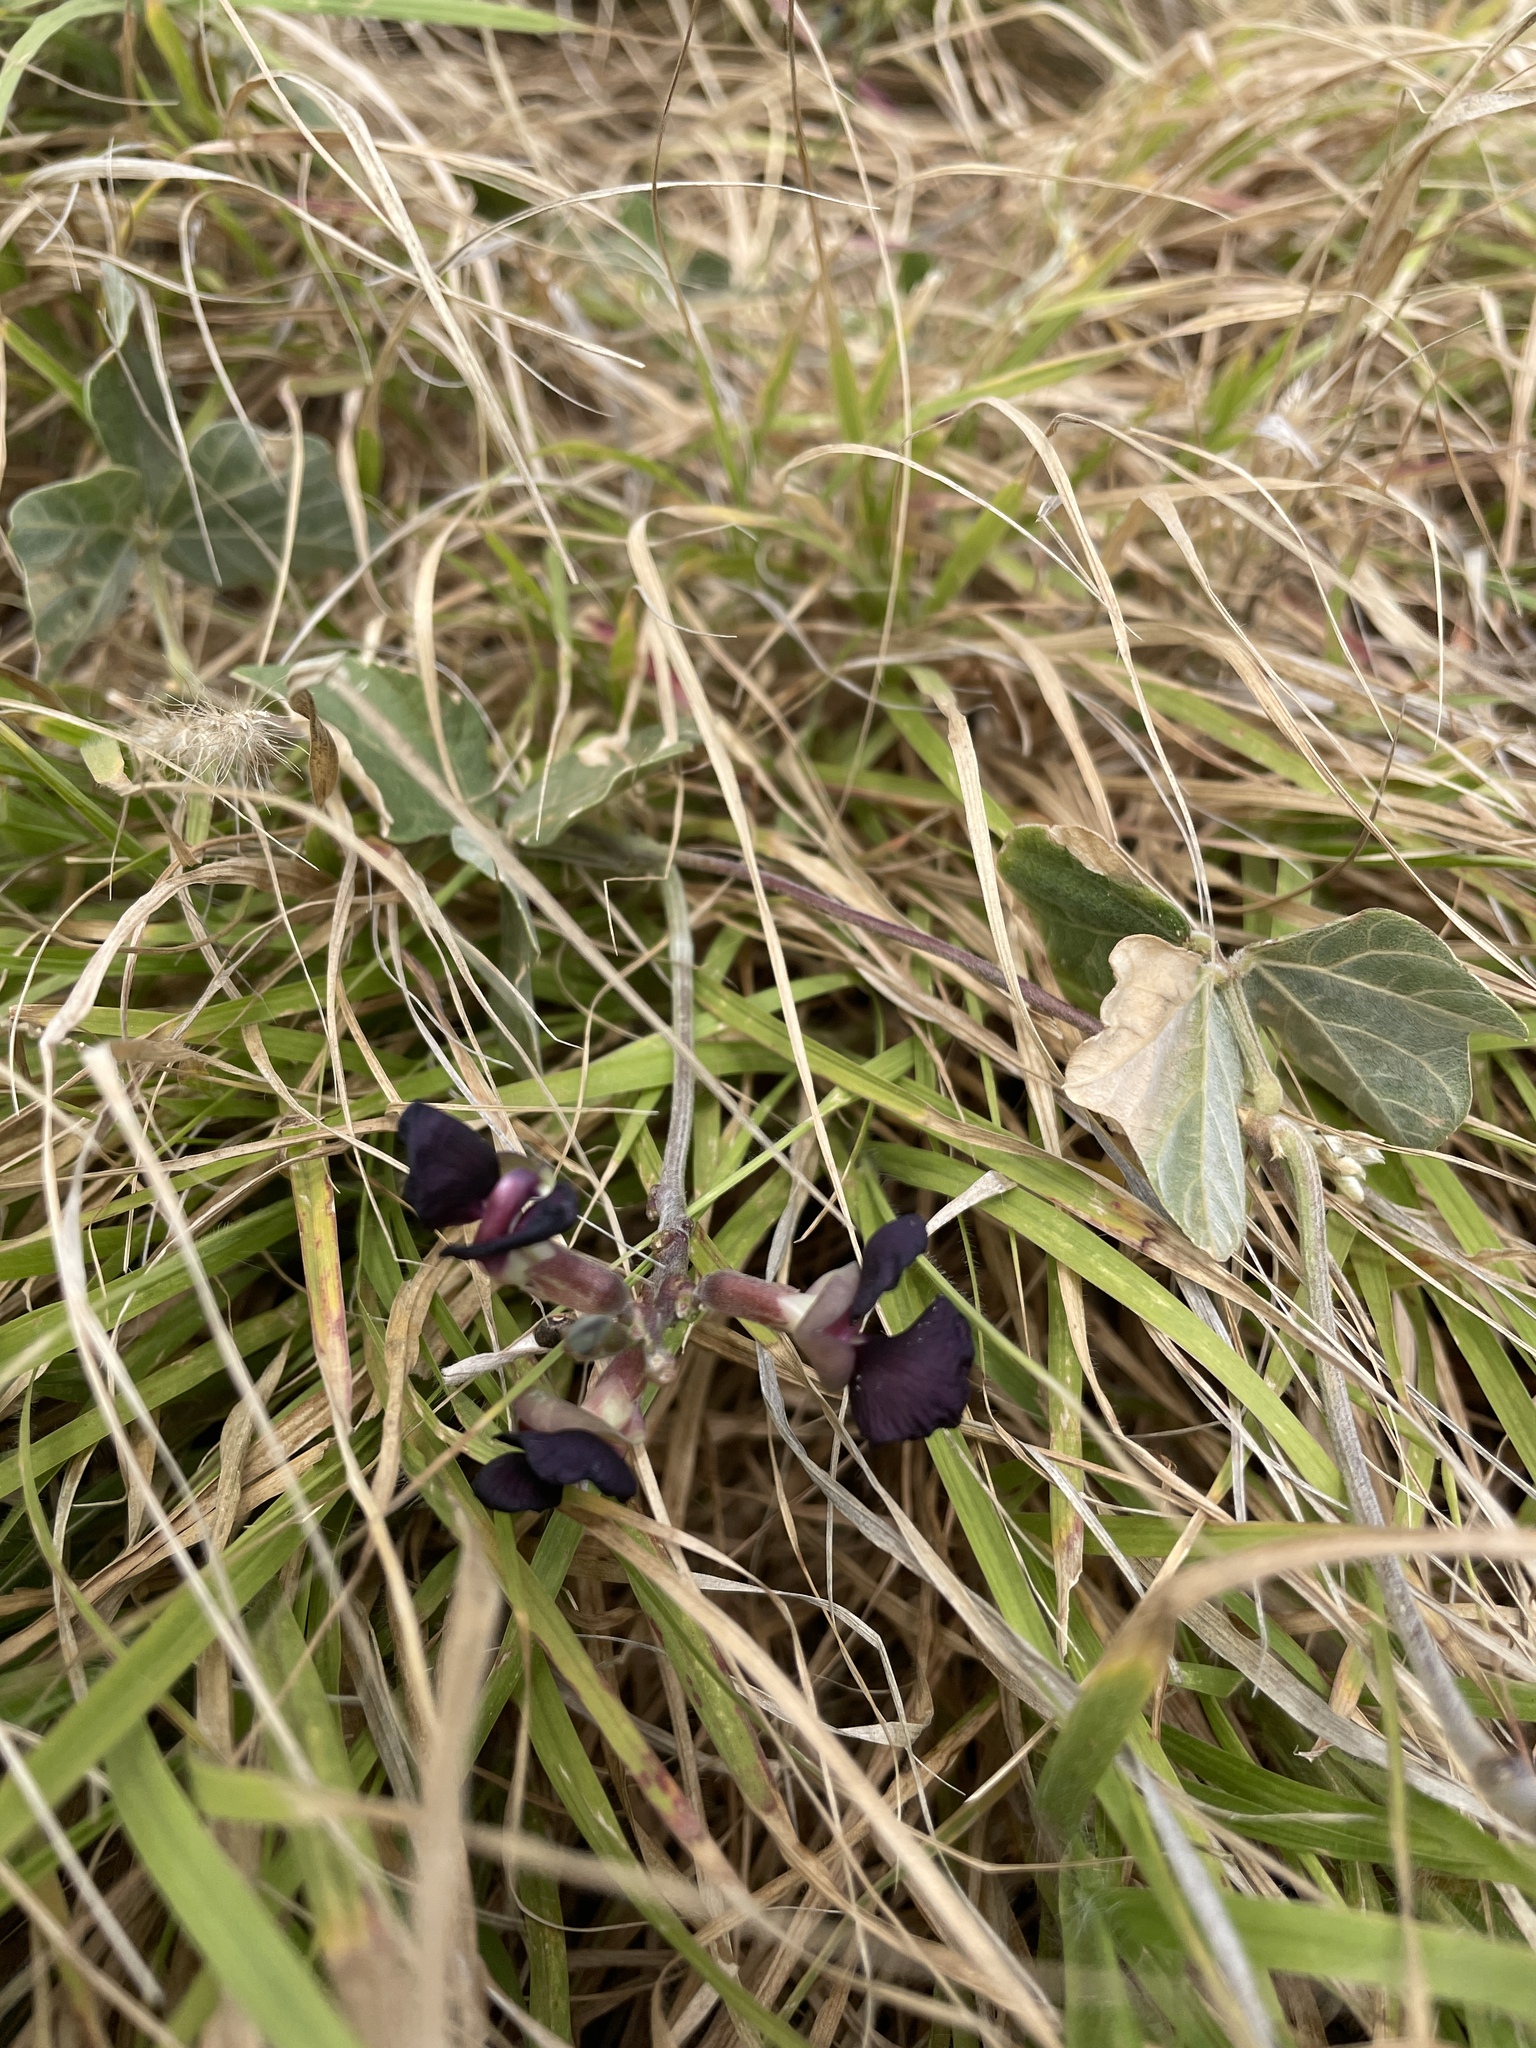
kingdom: Plantae
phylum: Tracheophyta
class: Magnoliopsida
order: Fabales
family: Fabaceae
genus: Macroptilium
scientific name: Macroptilium atropurpureum
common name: Purple bushbean
